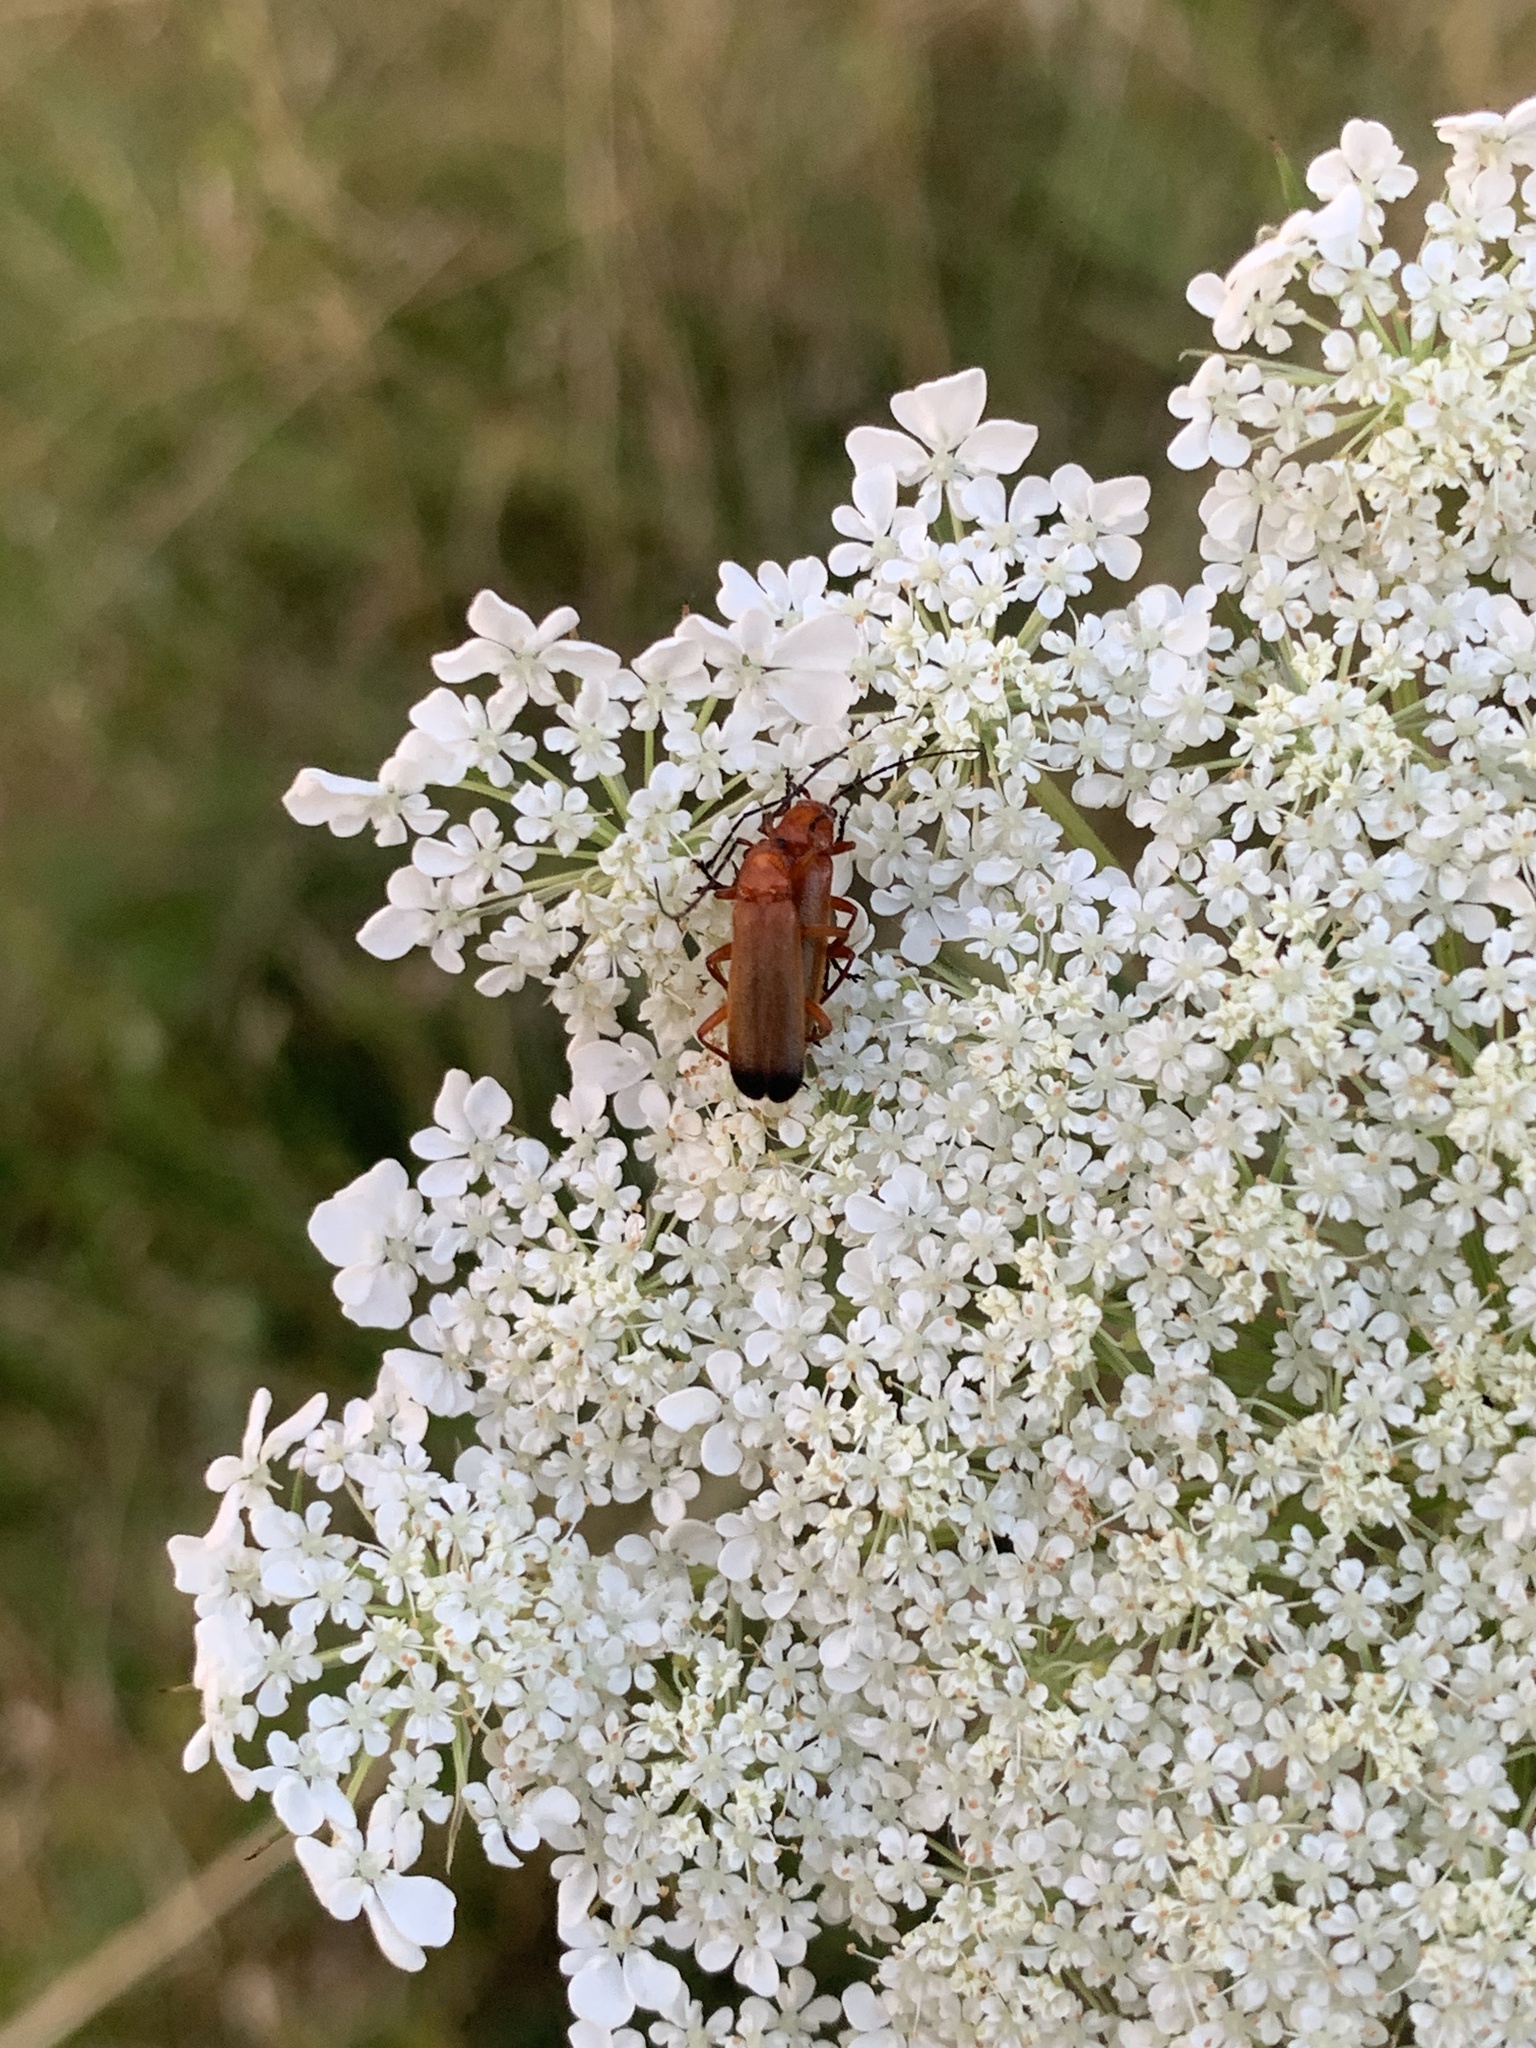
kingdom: Animalia
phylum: Arthropoda
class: Insecta
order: Coleoptera
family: Cantharidae
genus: Rhagonycha
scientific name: Rhagonycha fulva
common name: Common red soldier beetle
